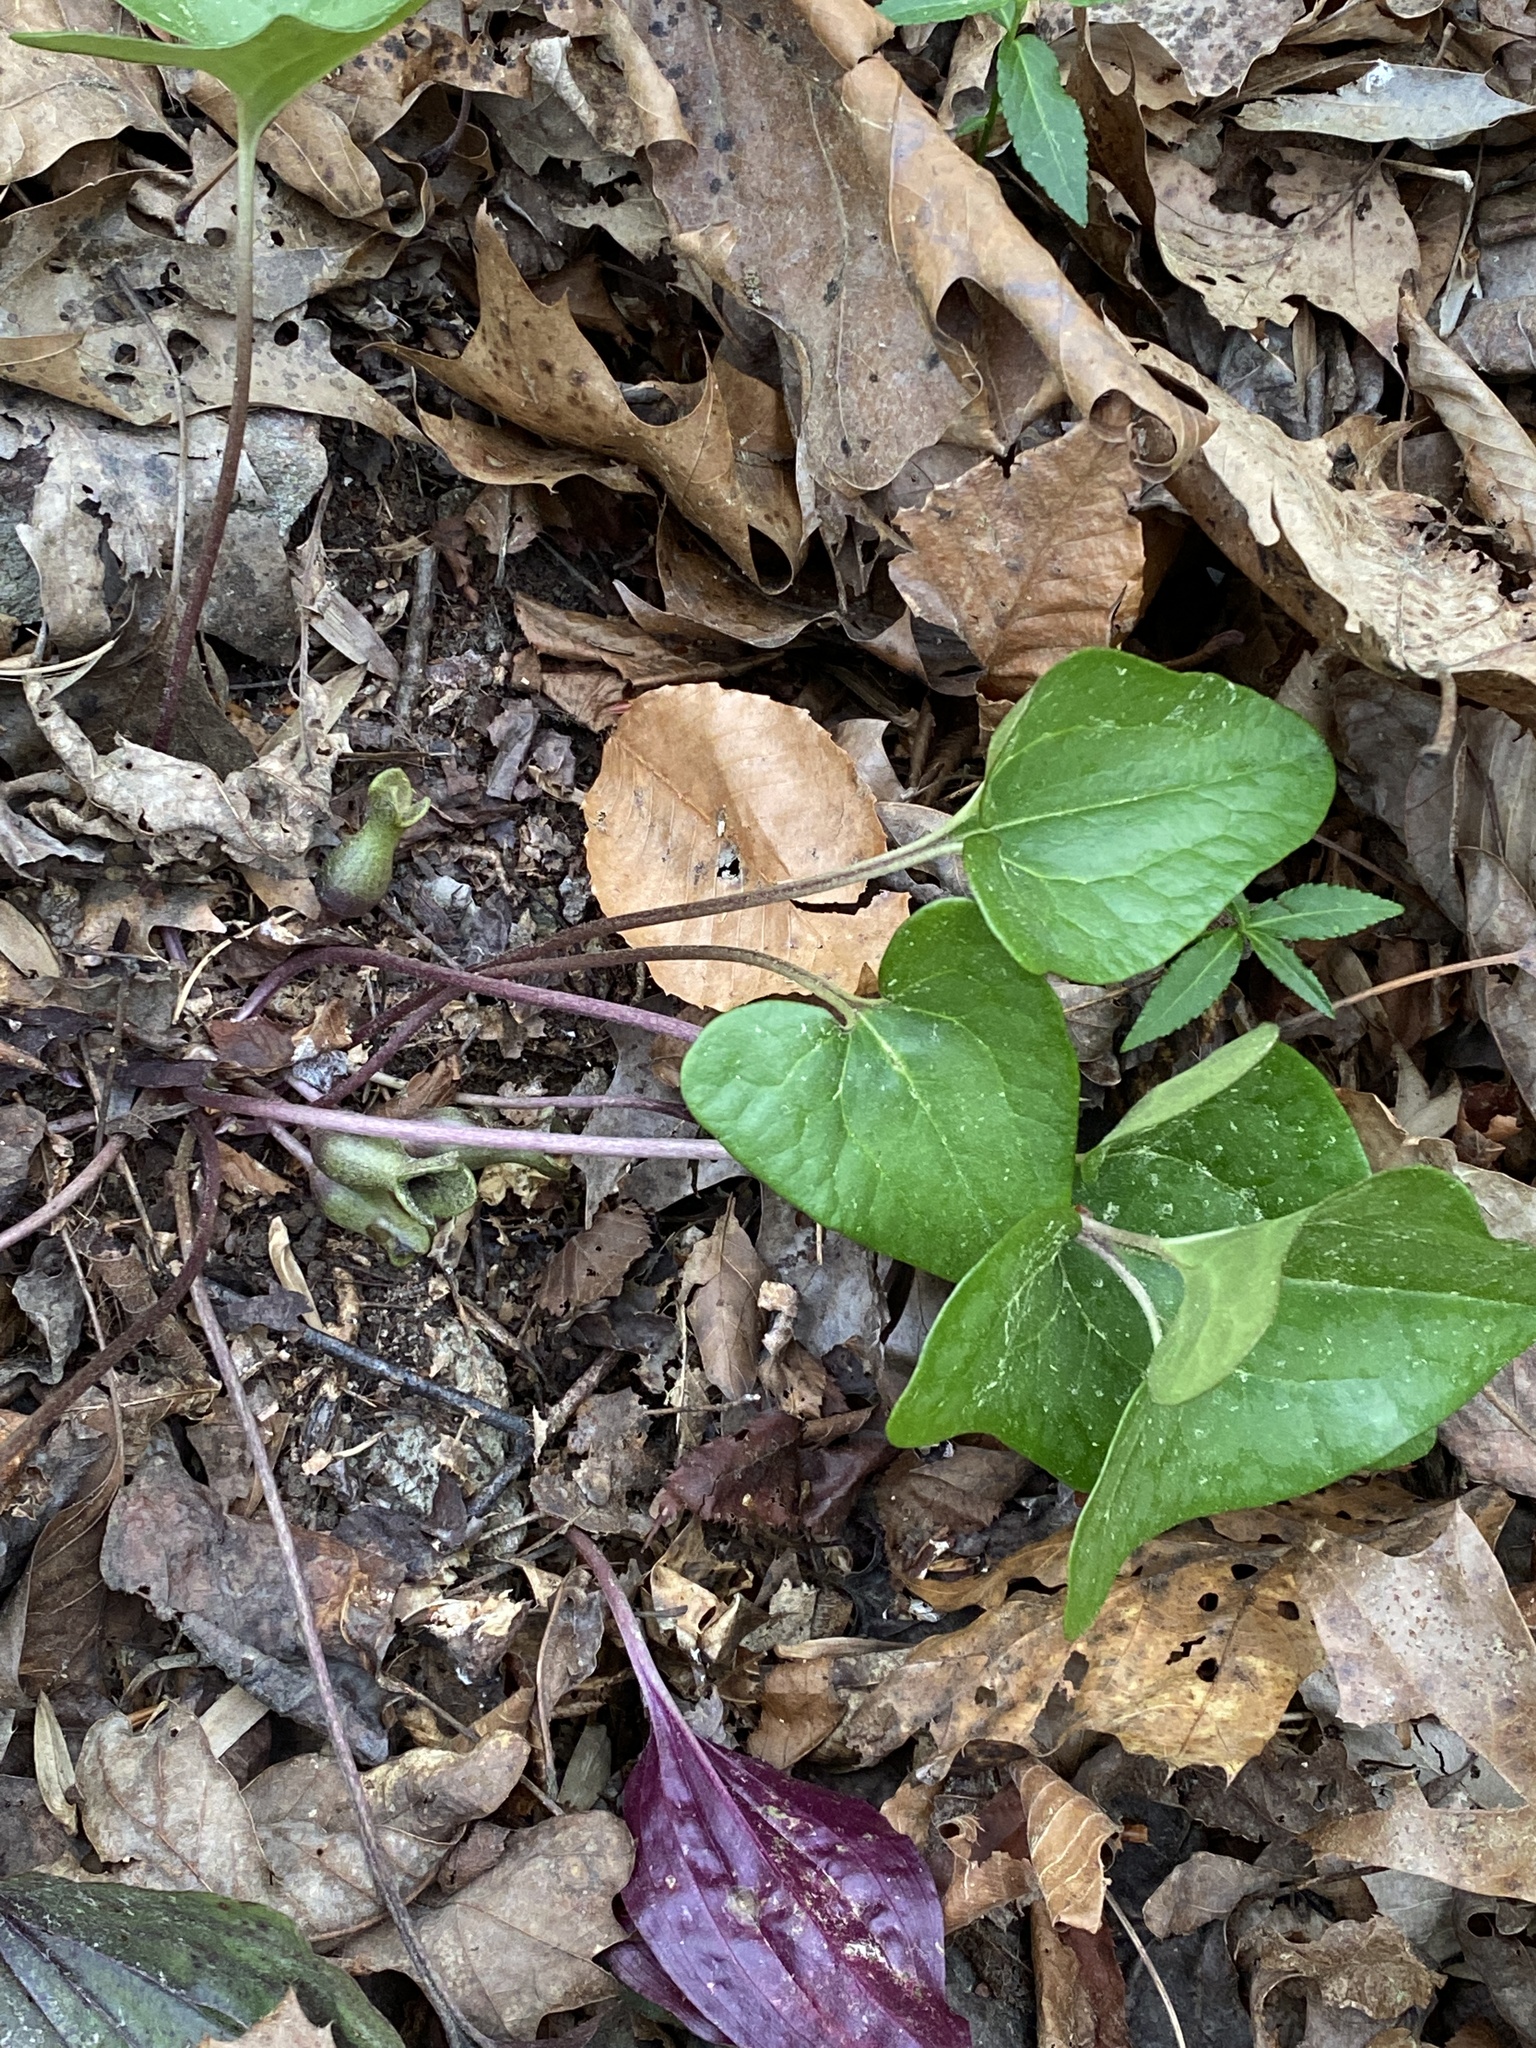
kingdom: Plantae
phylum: Tracheophyta
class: Magnoliopsida
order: Piperales
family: Aristolochiaceae
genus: Hexastylis
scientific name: Hexastylis arifolia
